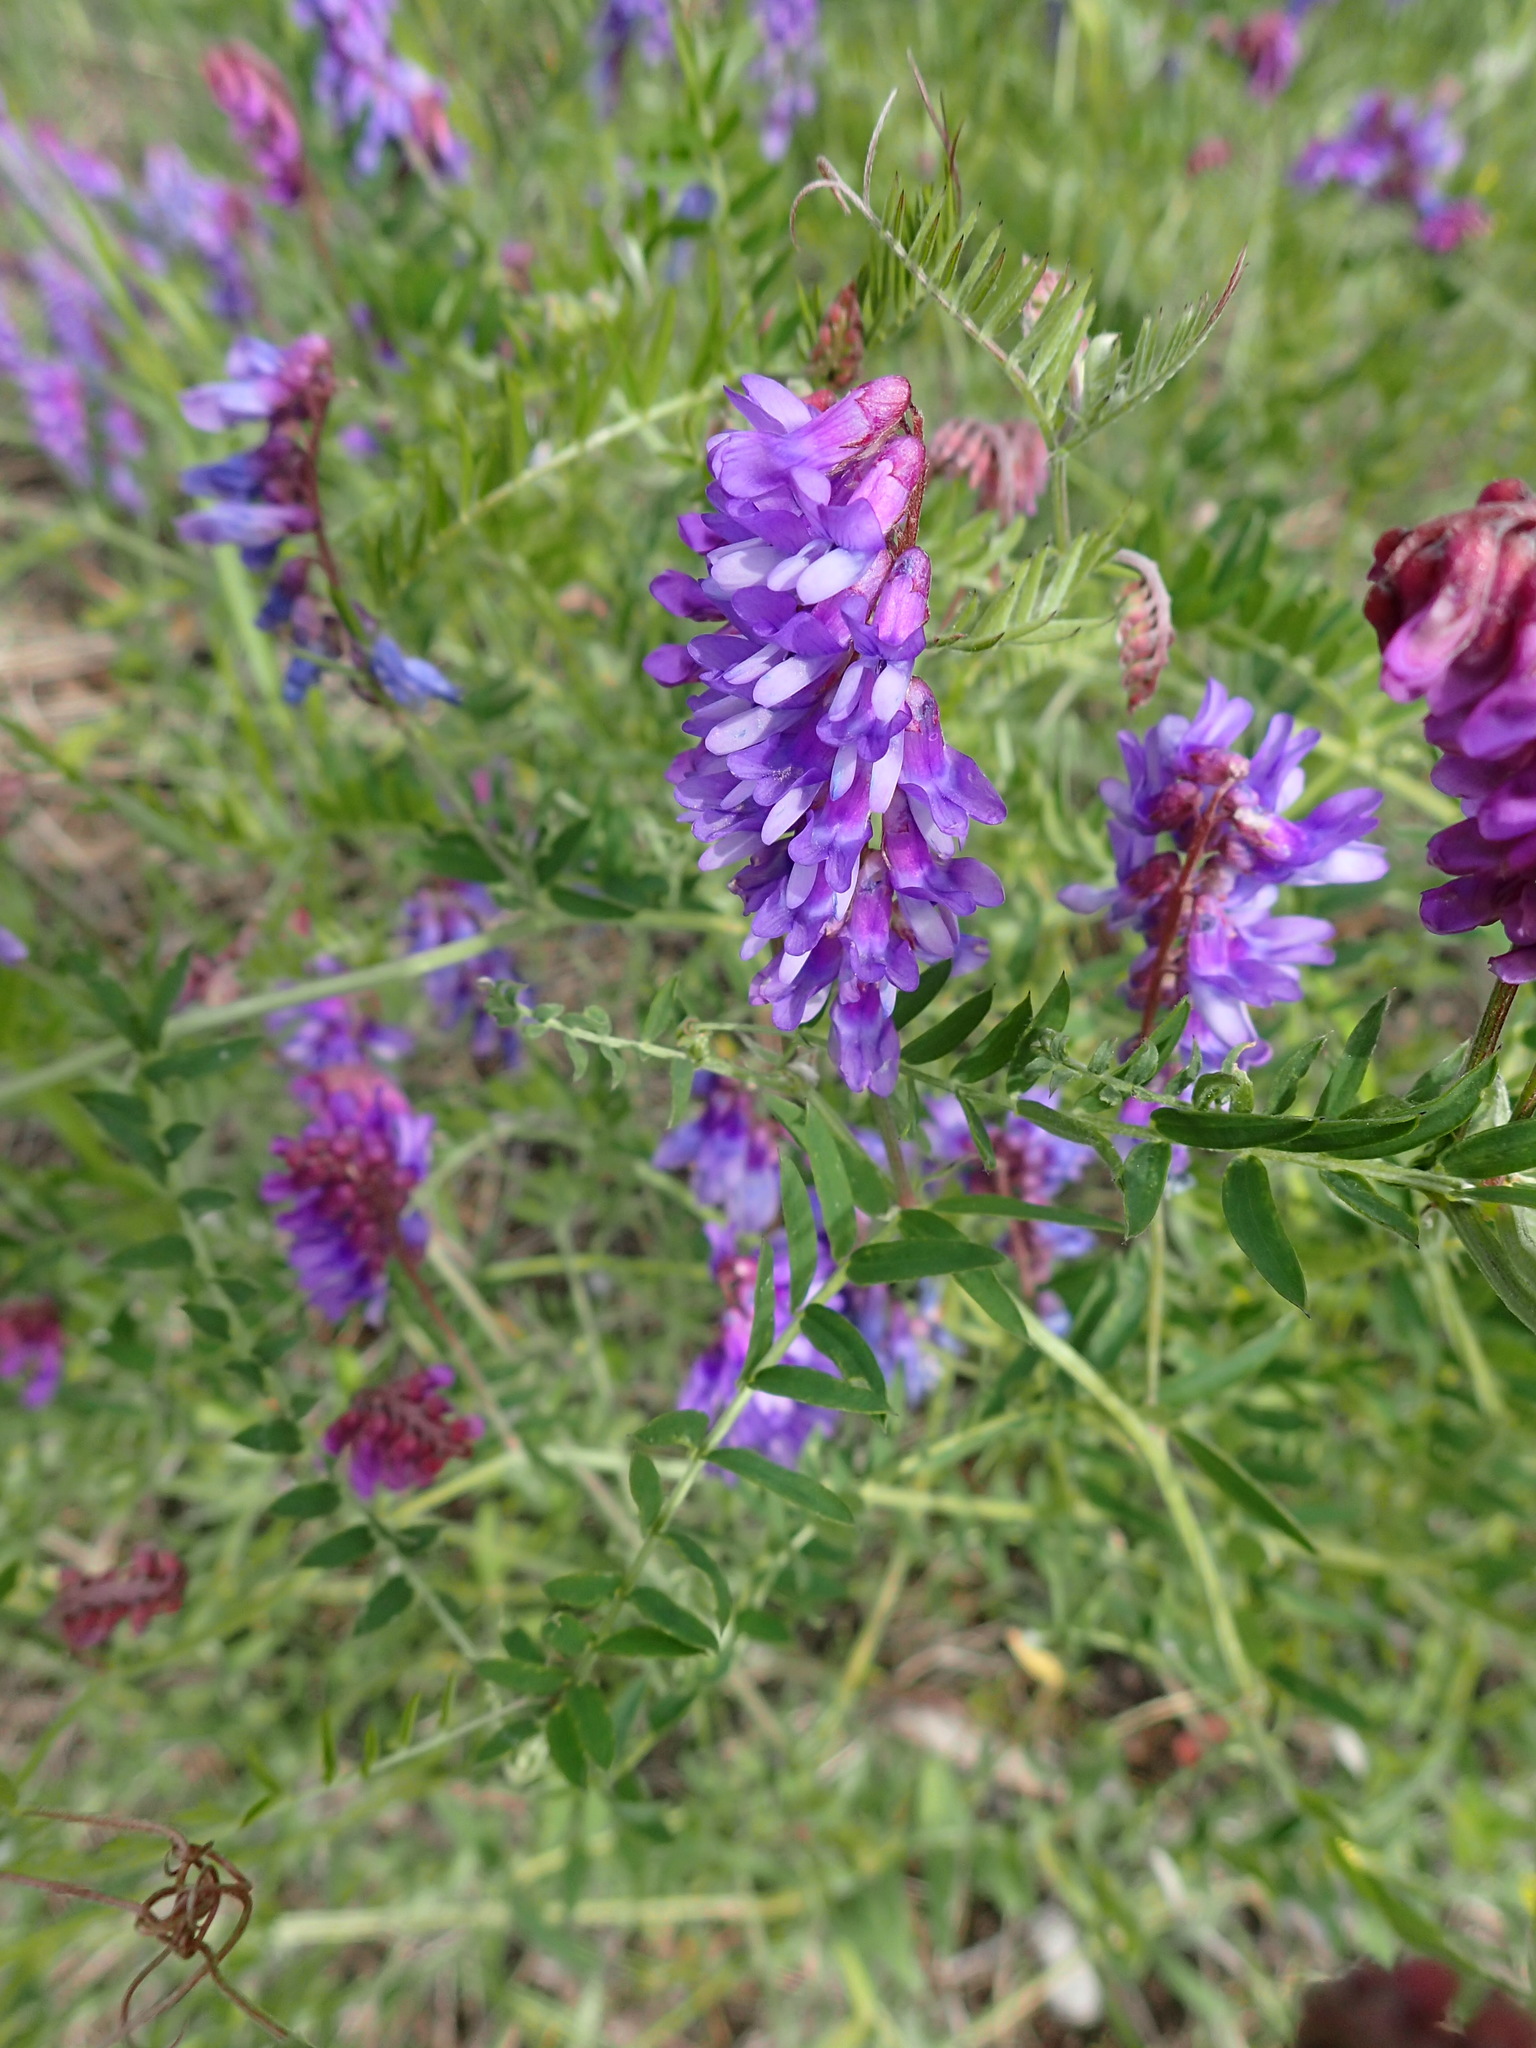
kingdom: Plantae
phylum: Tracheophyta
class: Magnoliopsida
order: Fabales
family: Fabaceae
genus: Vicia
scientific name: Vicia cracca
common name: Bird vetch
